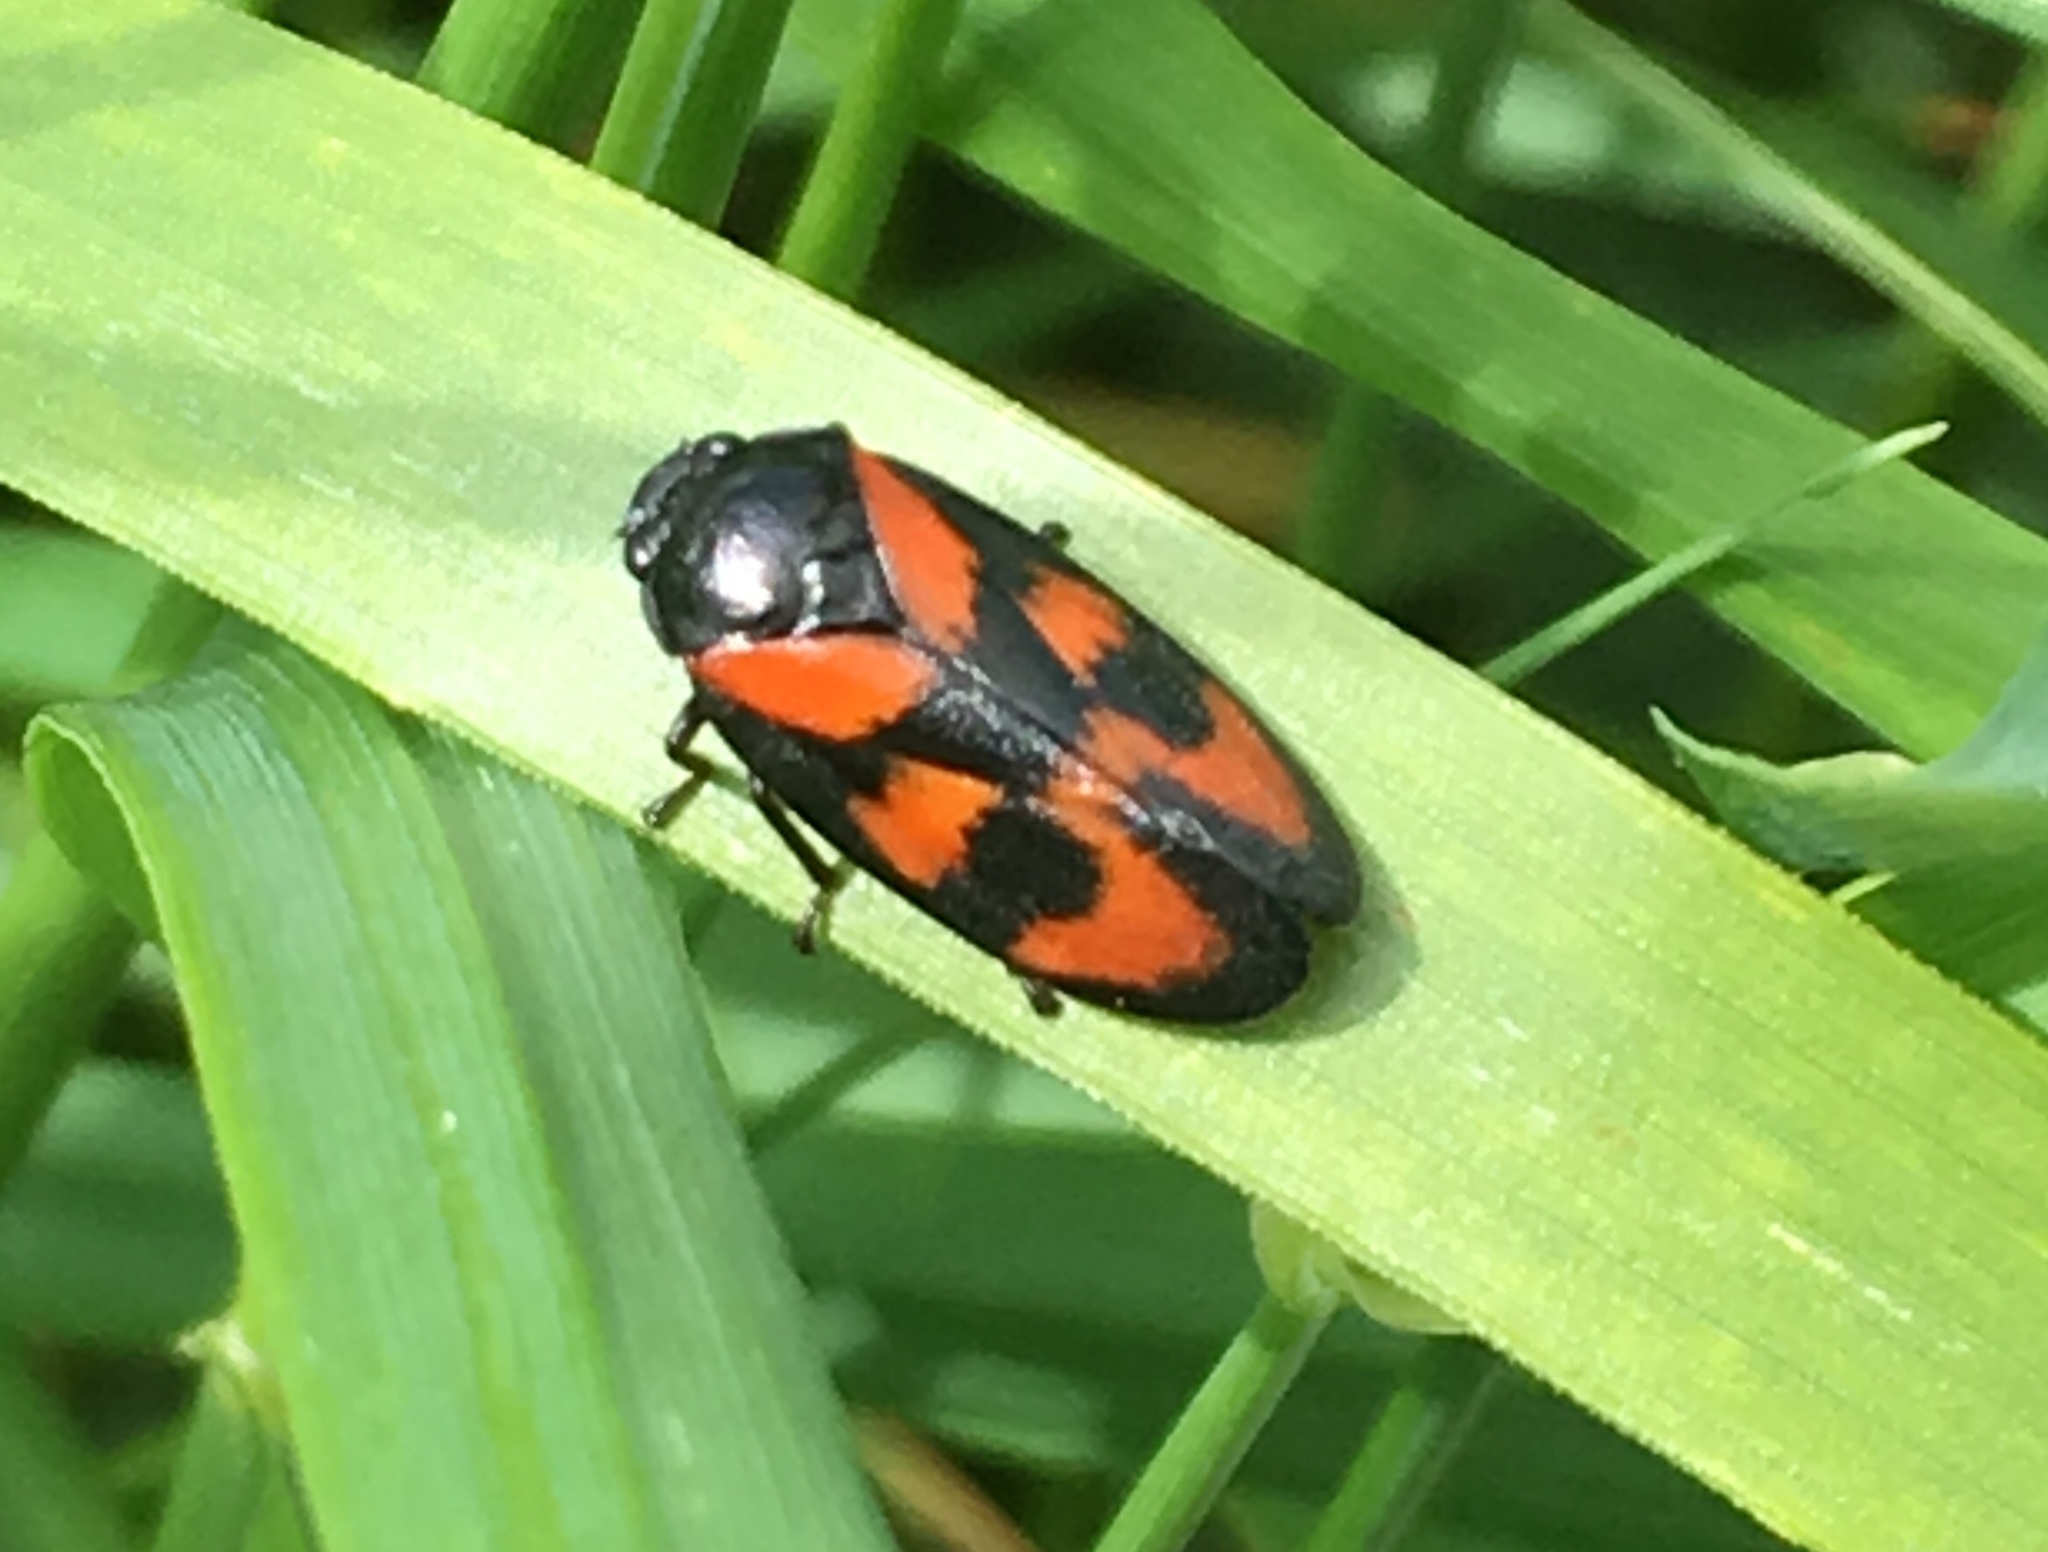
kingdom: Animalia
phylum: Arthropoda
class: Insecta
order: Hemiptera
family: Cercopidae
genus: Cercopis
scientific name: Cercopis vulnerata
